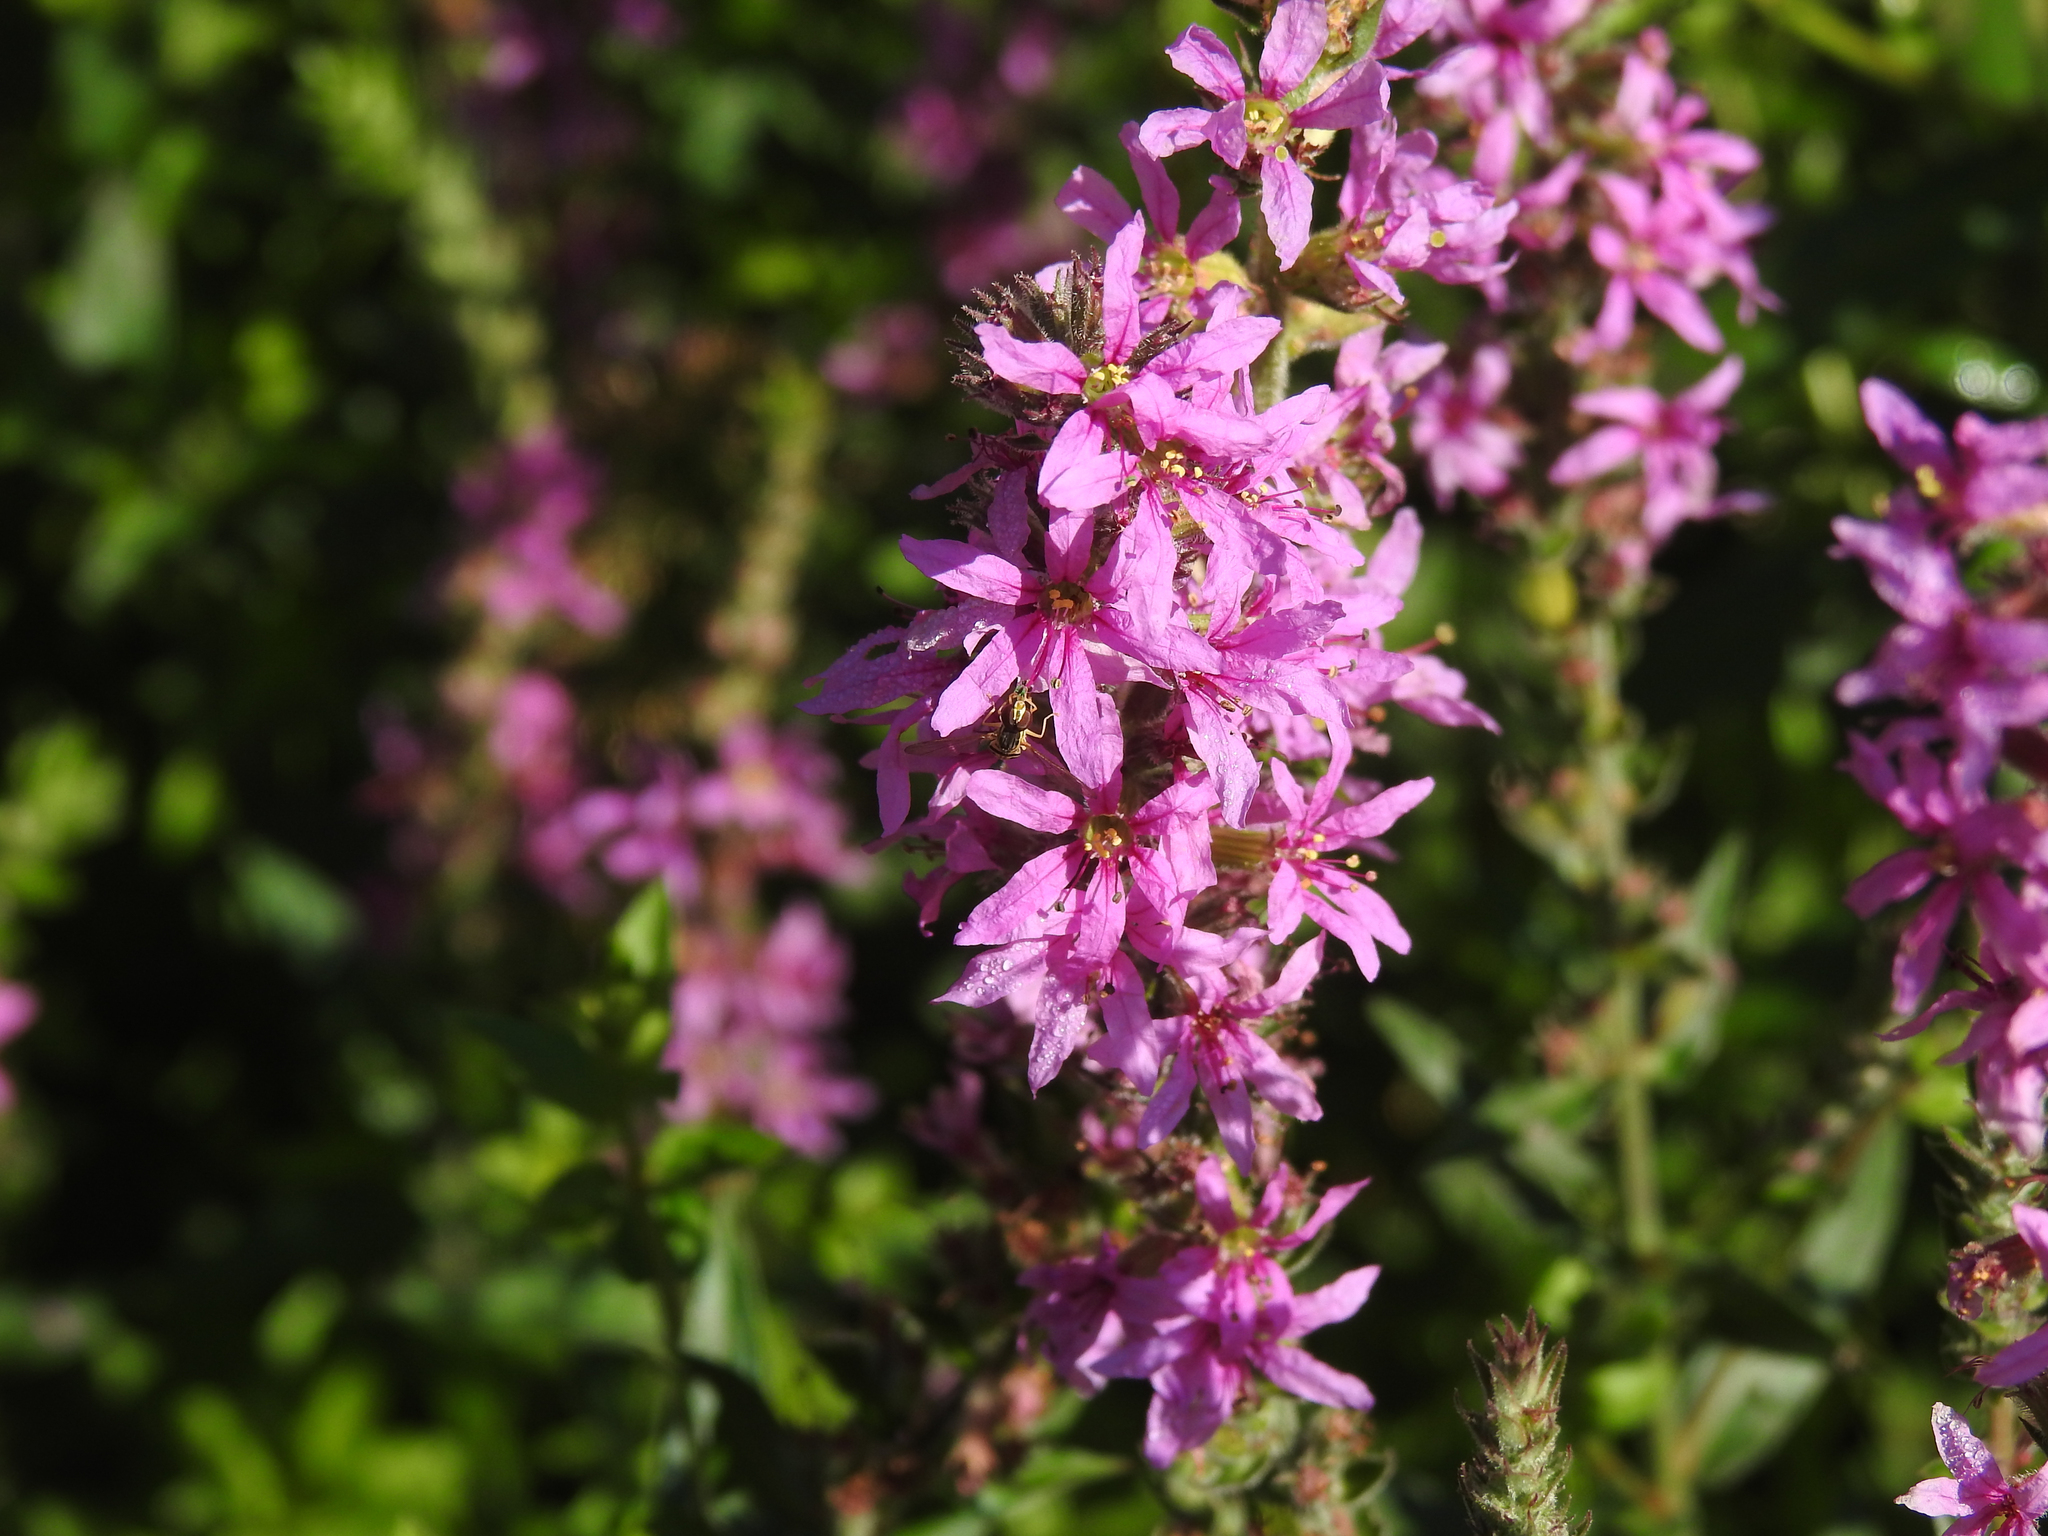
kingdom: Plantae
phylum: Tracheophyta
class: Magnoliopsida
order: Myrtales
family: Lythraceae
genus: Lythrum
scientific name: Lythrum salicaria
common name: Purple loosestrife
